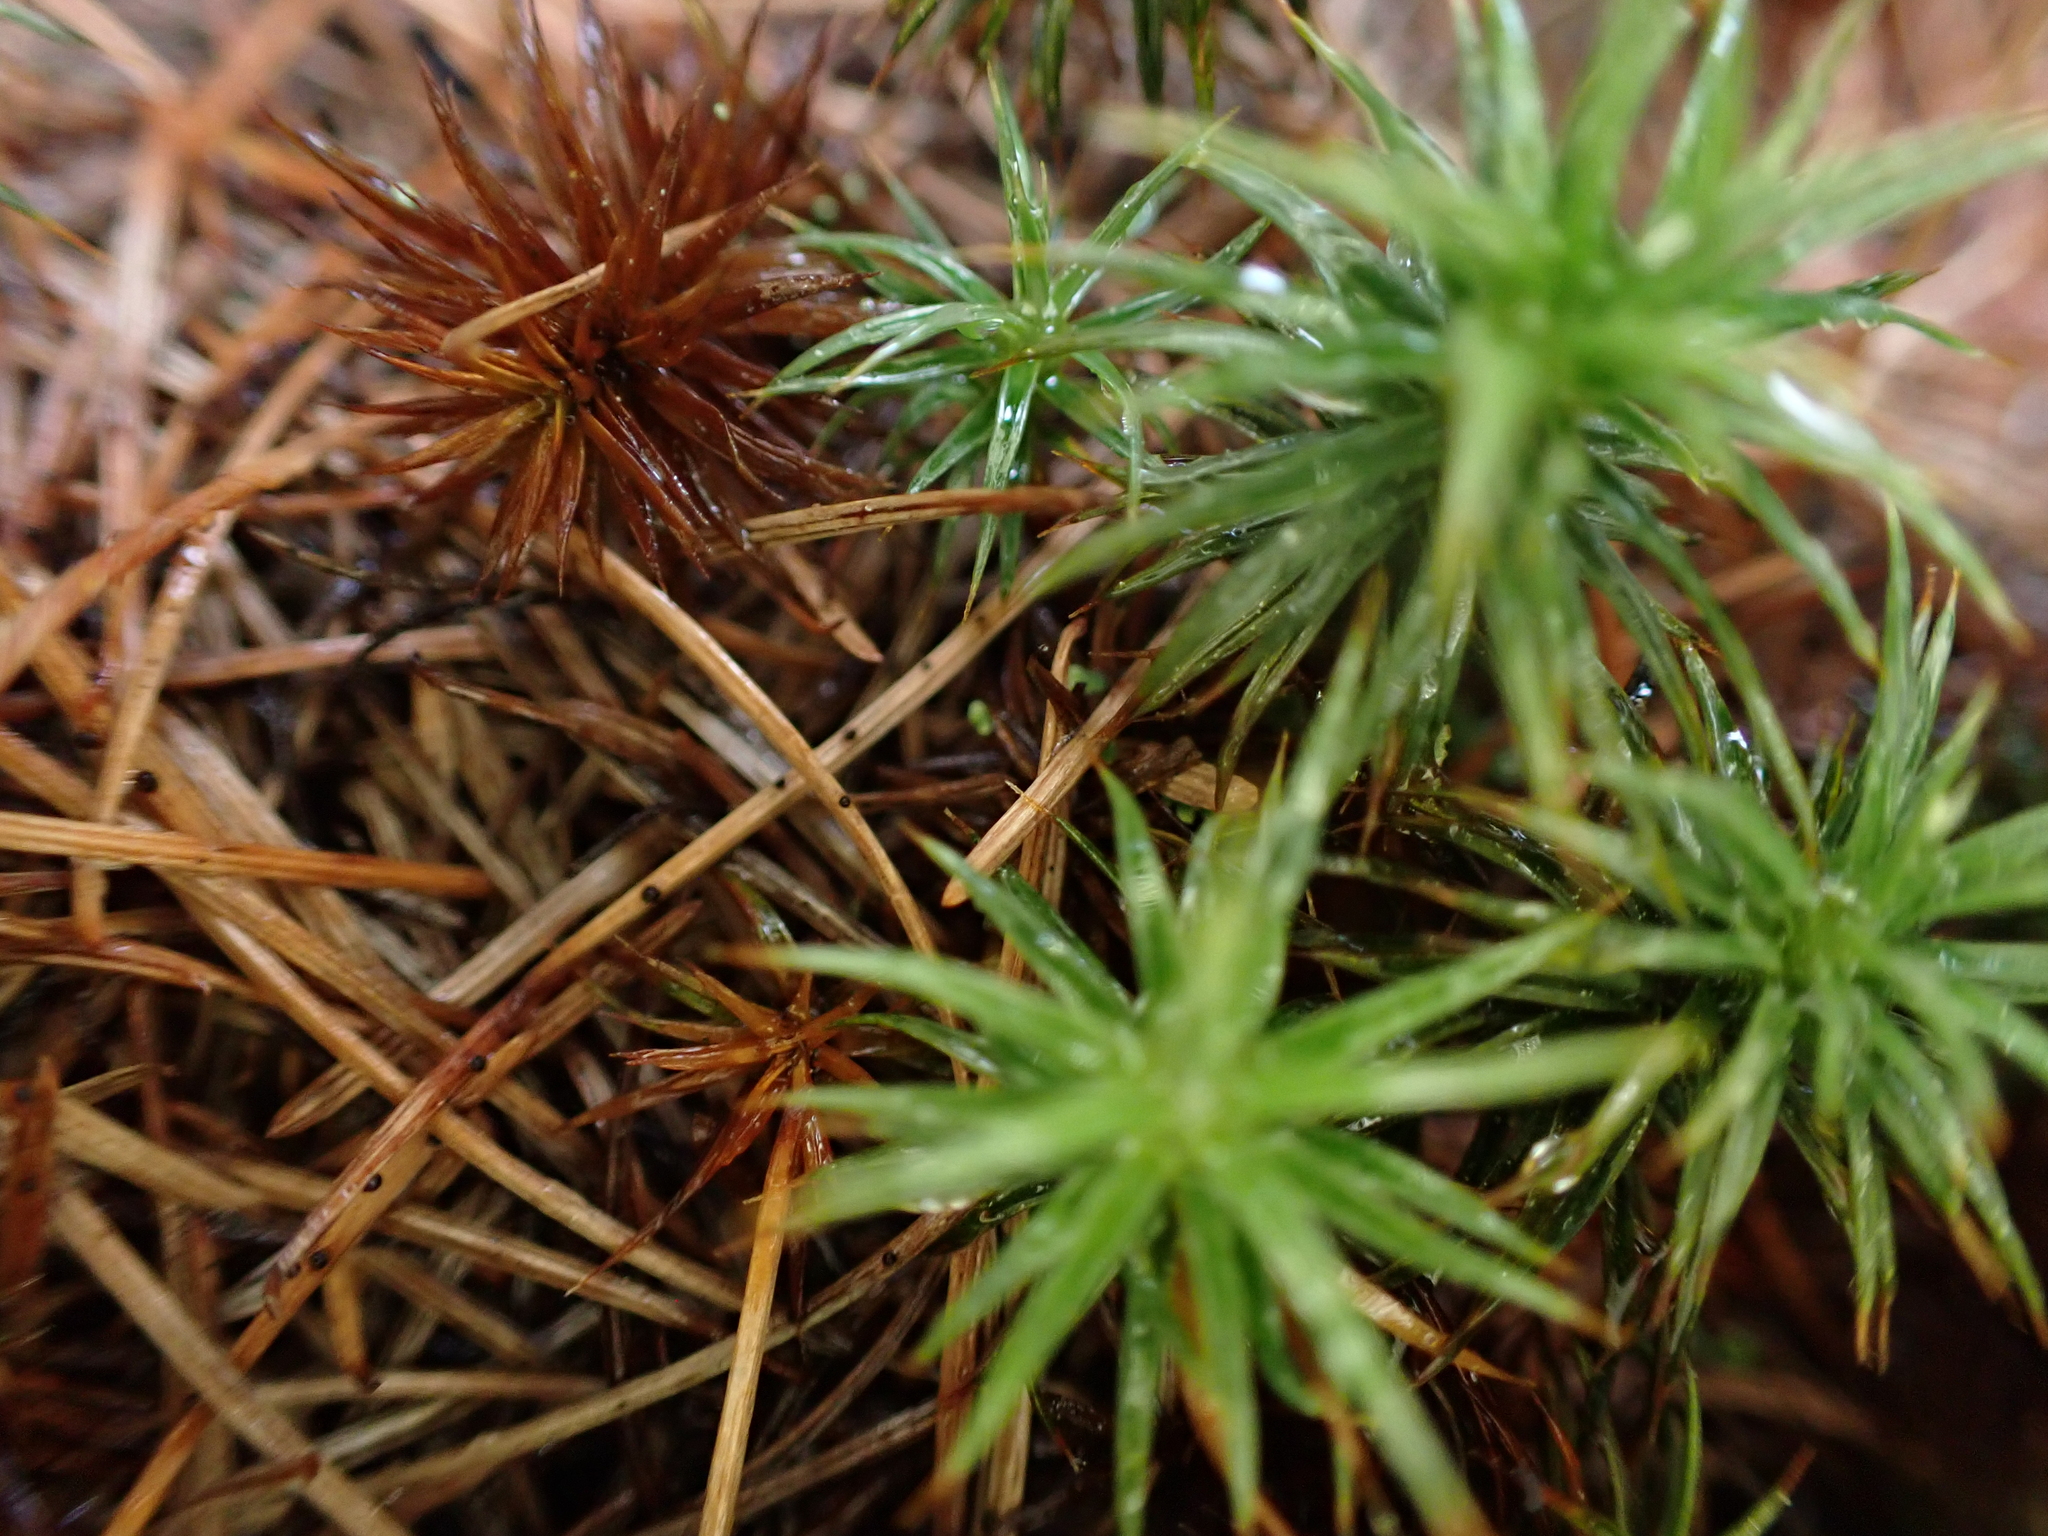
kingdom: Plantae
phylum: Bryophyta
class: Polytrichopsida
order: Polytrichales
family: Polytrichaceae
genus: Polytrichum
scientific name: Polytrichum juniperinum
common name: Juniper haircap moss
